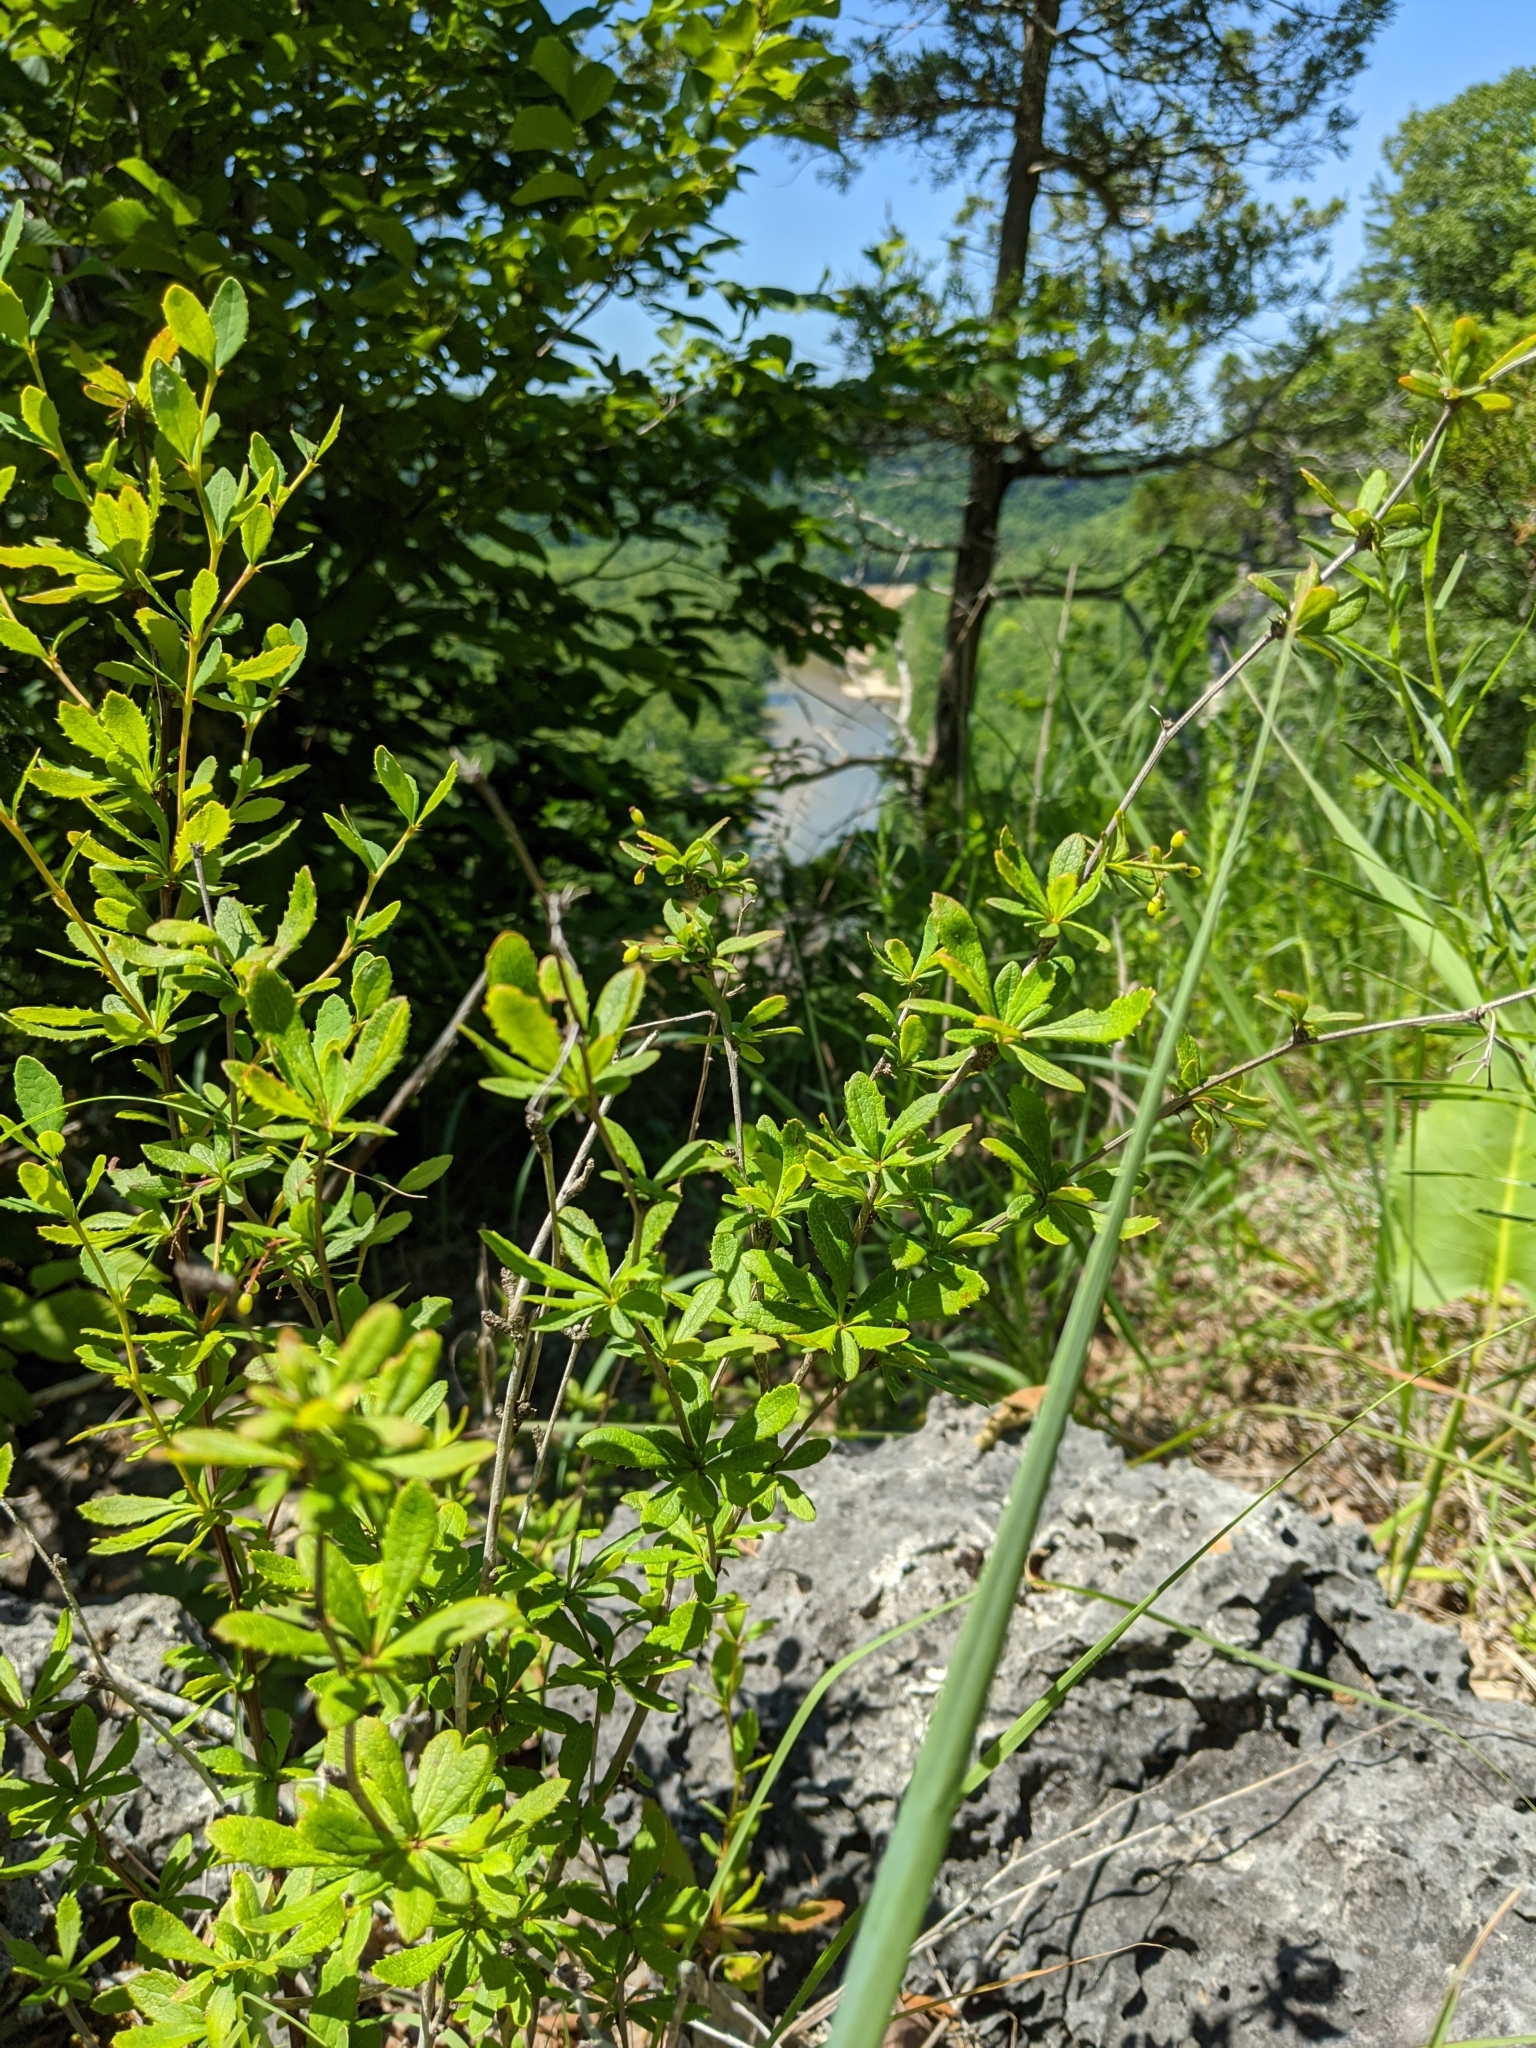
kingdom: Plantae
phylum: Tracheophyta
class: Magnoliopsida
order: Ranunculales
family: Berberidaceae
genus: Berberis
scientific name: Berberis canadensis
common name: American barberry
